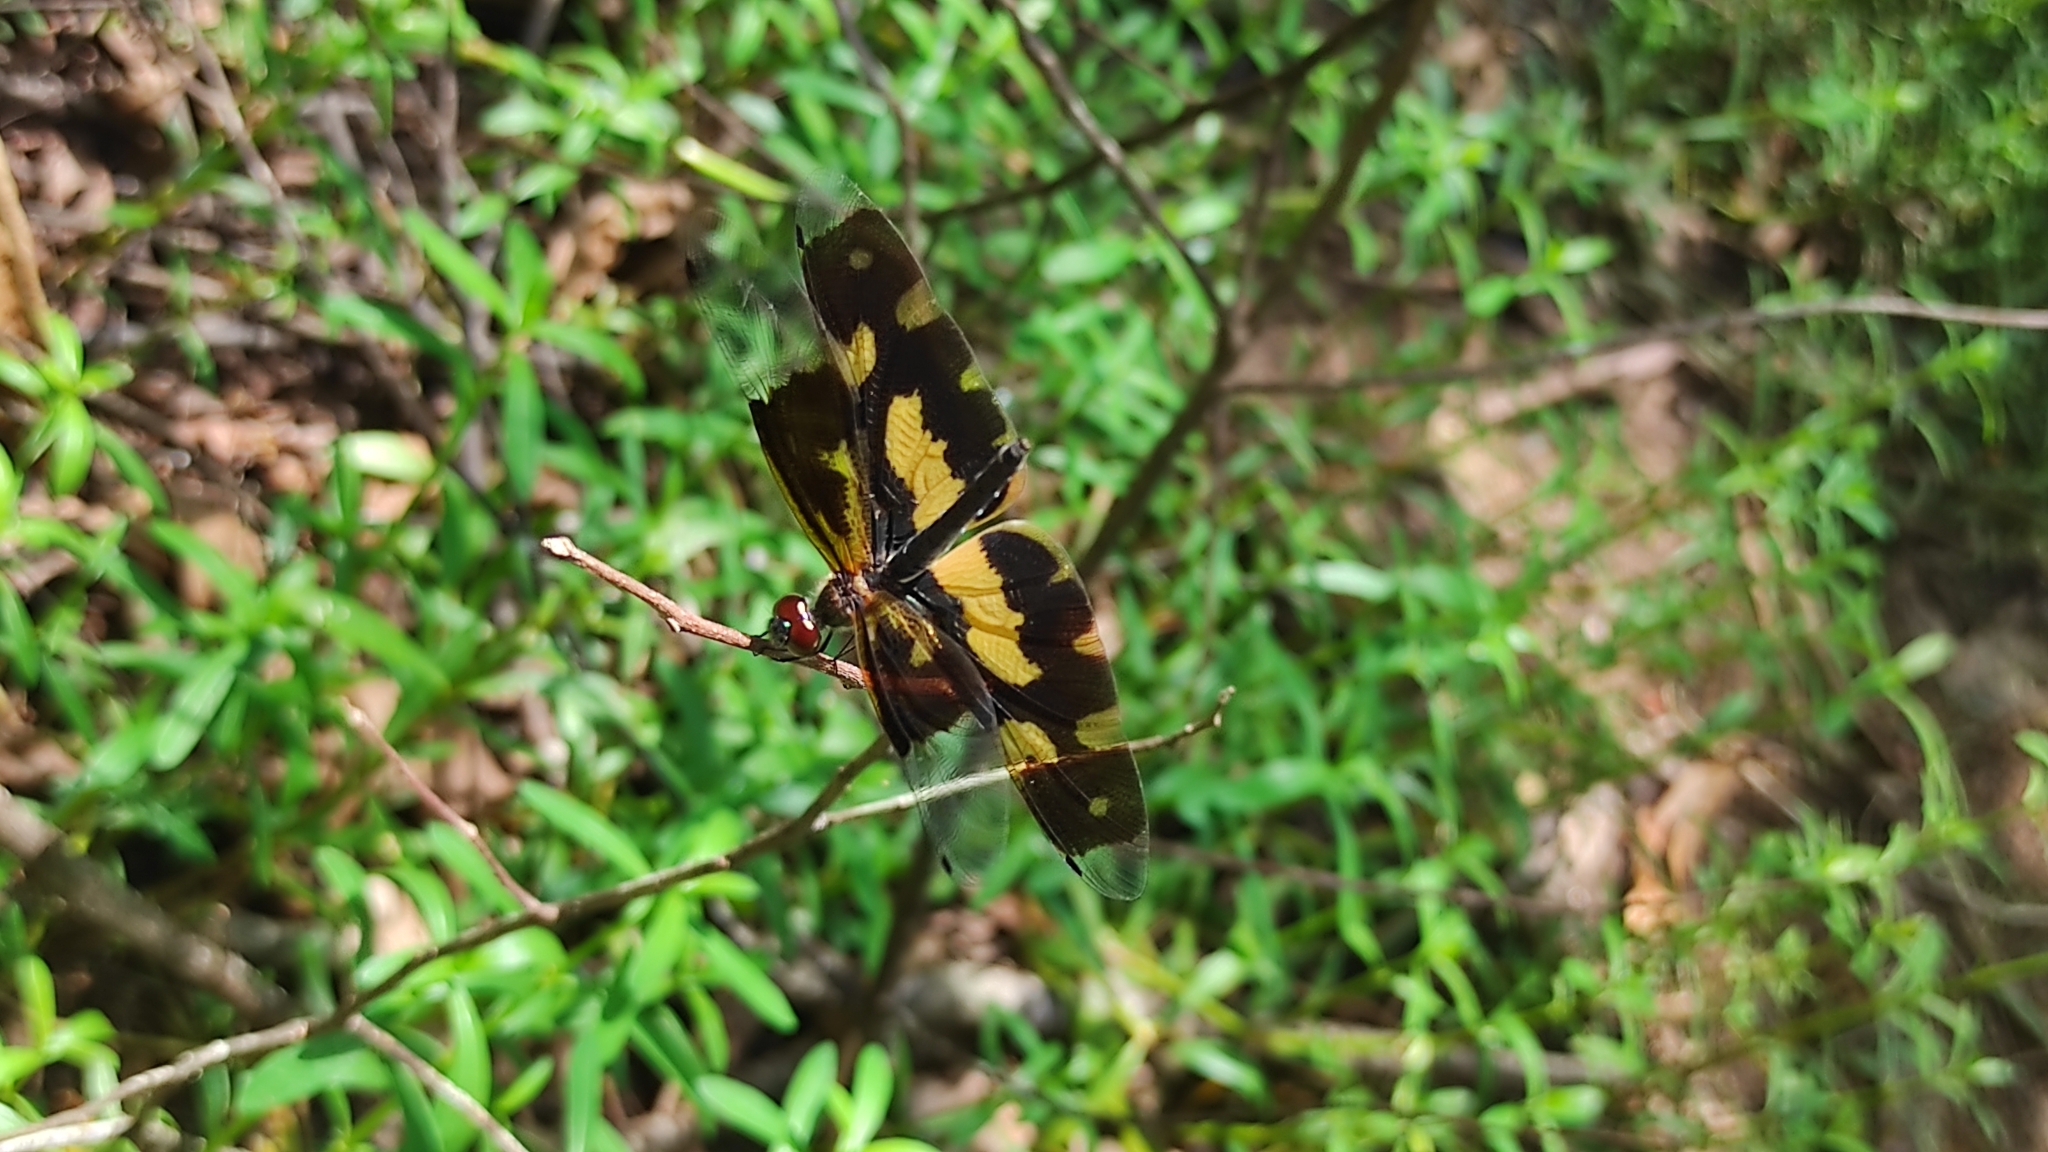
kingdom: Animalia
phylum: Arthropoda
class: Insecta
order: Odonata
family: Libellulidae
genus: Rhyothemis
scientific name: Rhyothemis variegata
